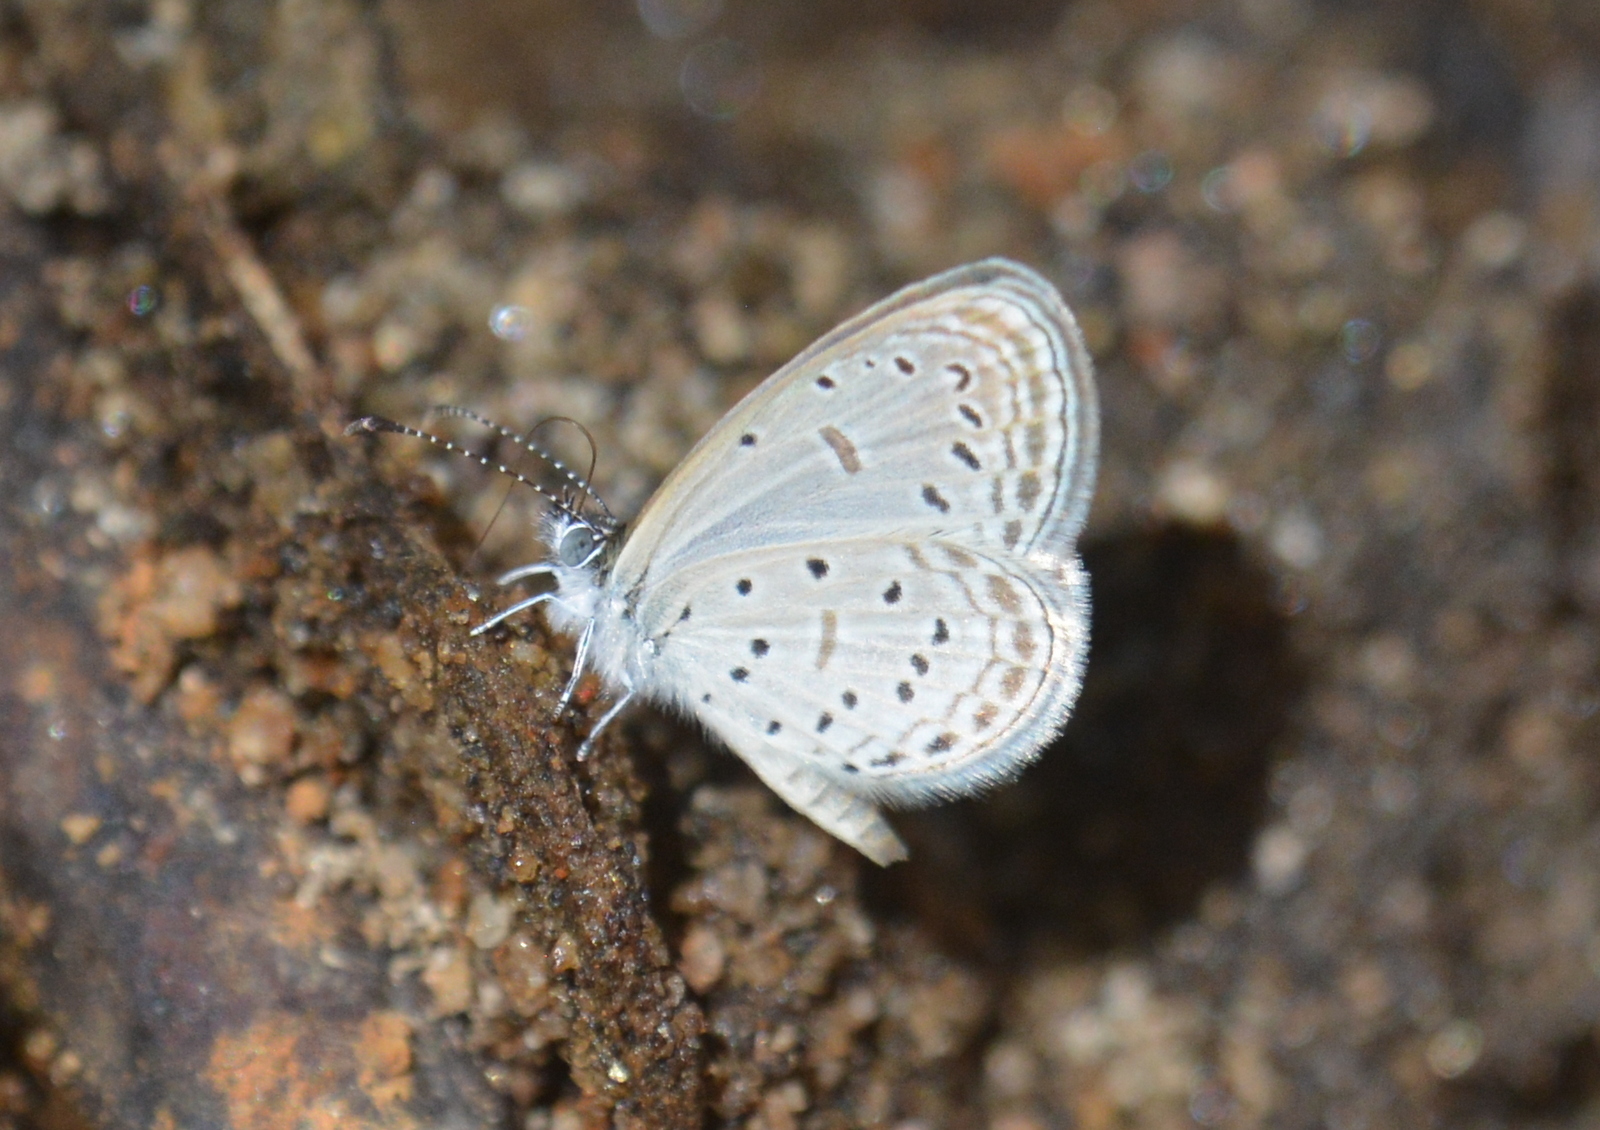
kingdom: Animalia
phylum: Arthropoda
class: Insecta
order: Lepidoptera
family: Lycaenidae
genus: Zizula
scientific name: Zizula hylax
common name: Gaika blue
